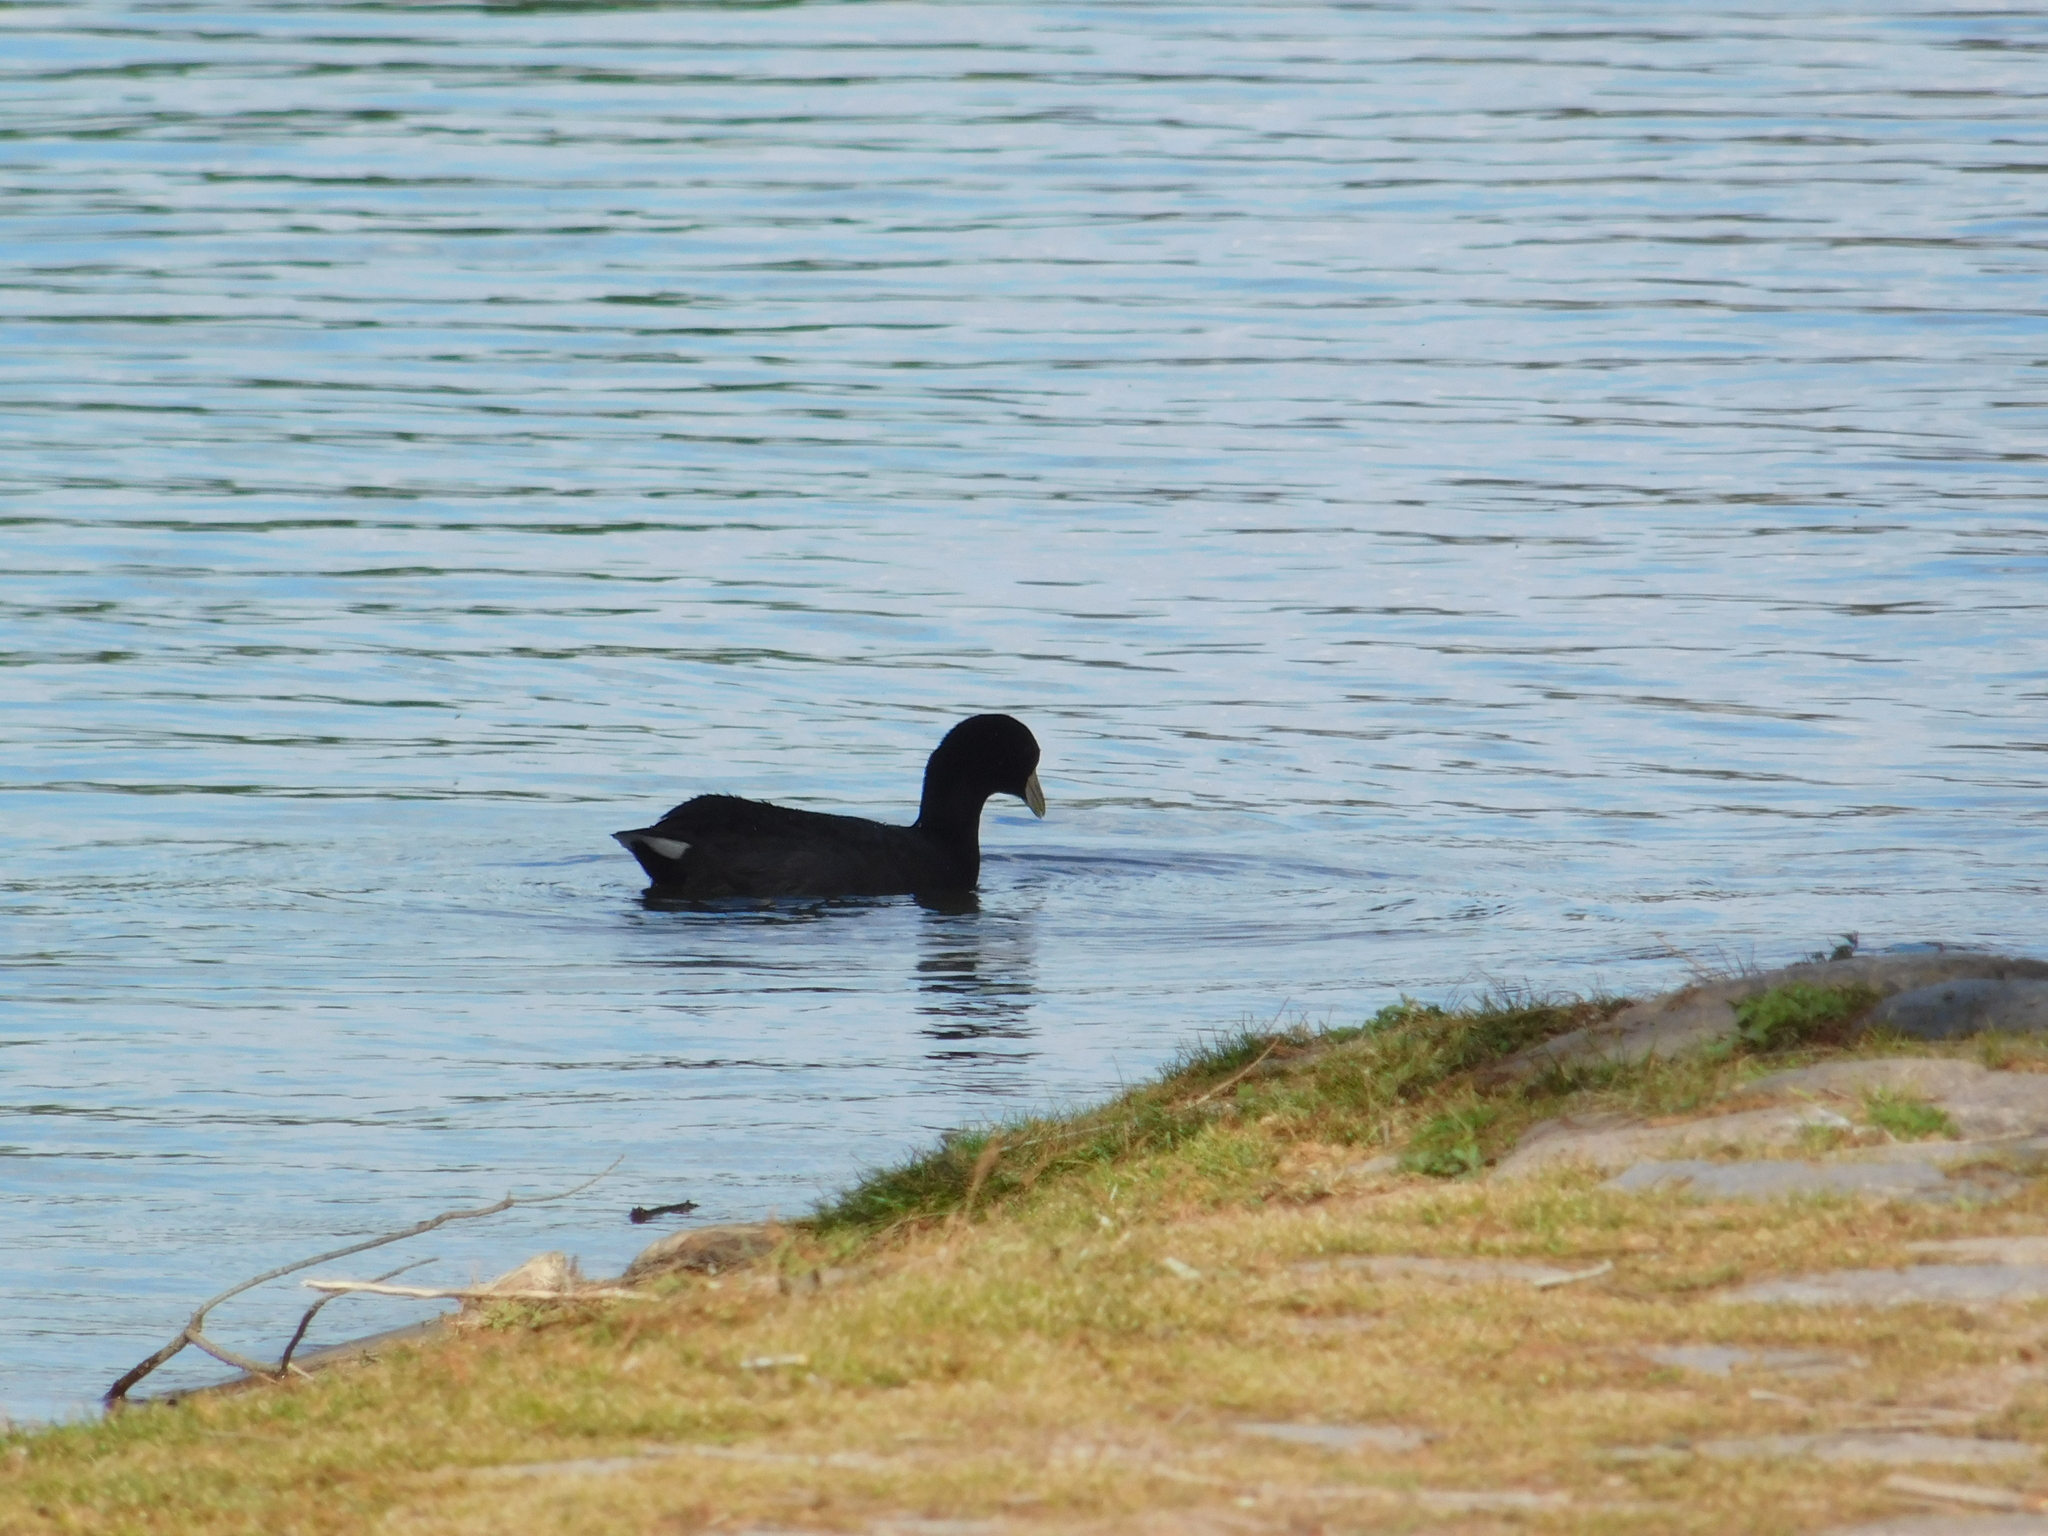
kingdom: Animalia
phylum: Chordata
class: Aves
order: Gruiformes
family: Rallidae
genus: Fulica
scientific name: Fulica leucoptera
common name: White-winged coot
